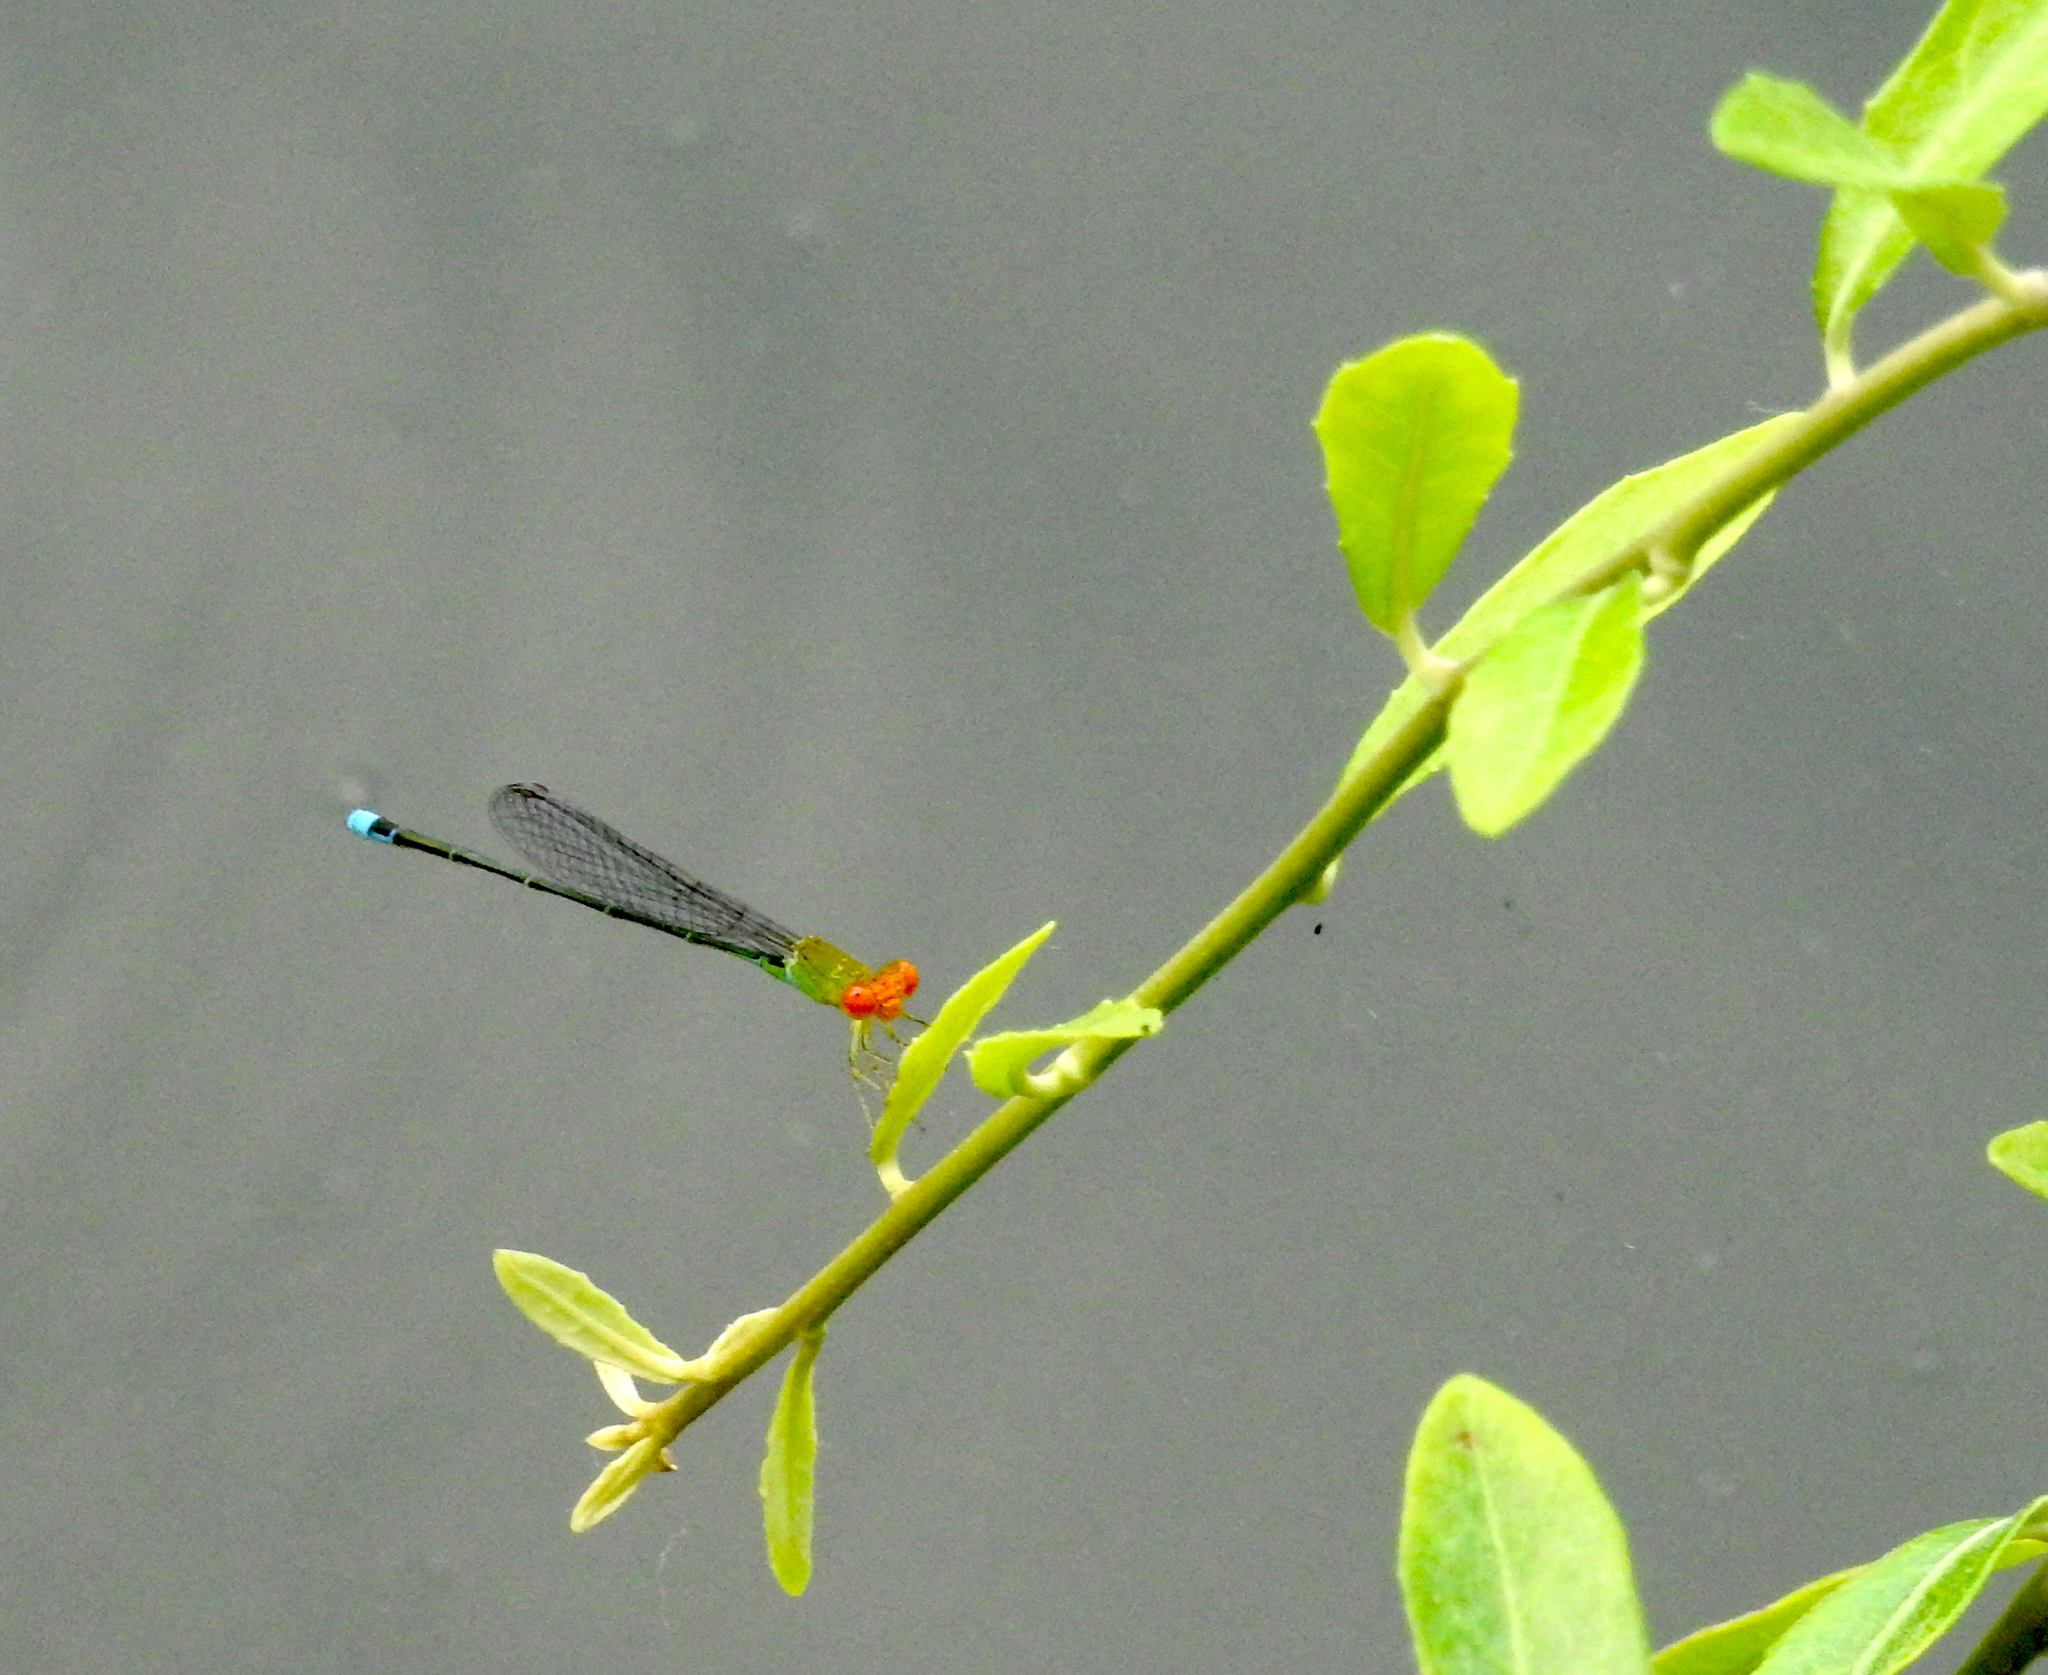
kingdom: Animalia
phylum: Arthropoda
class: Insecta
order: Odonata
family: Coenagrionidae
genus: Pseudagrion
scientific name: Pseudagrion rubriceps
